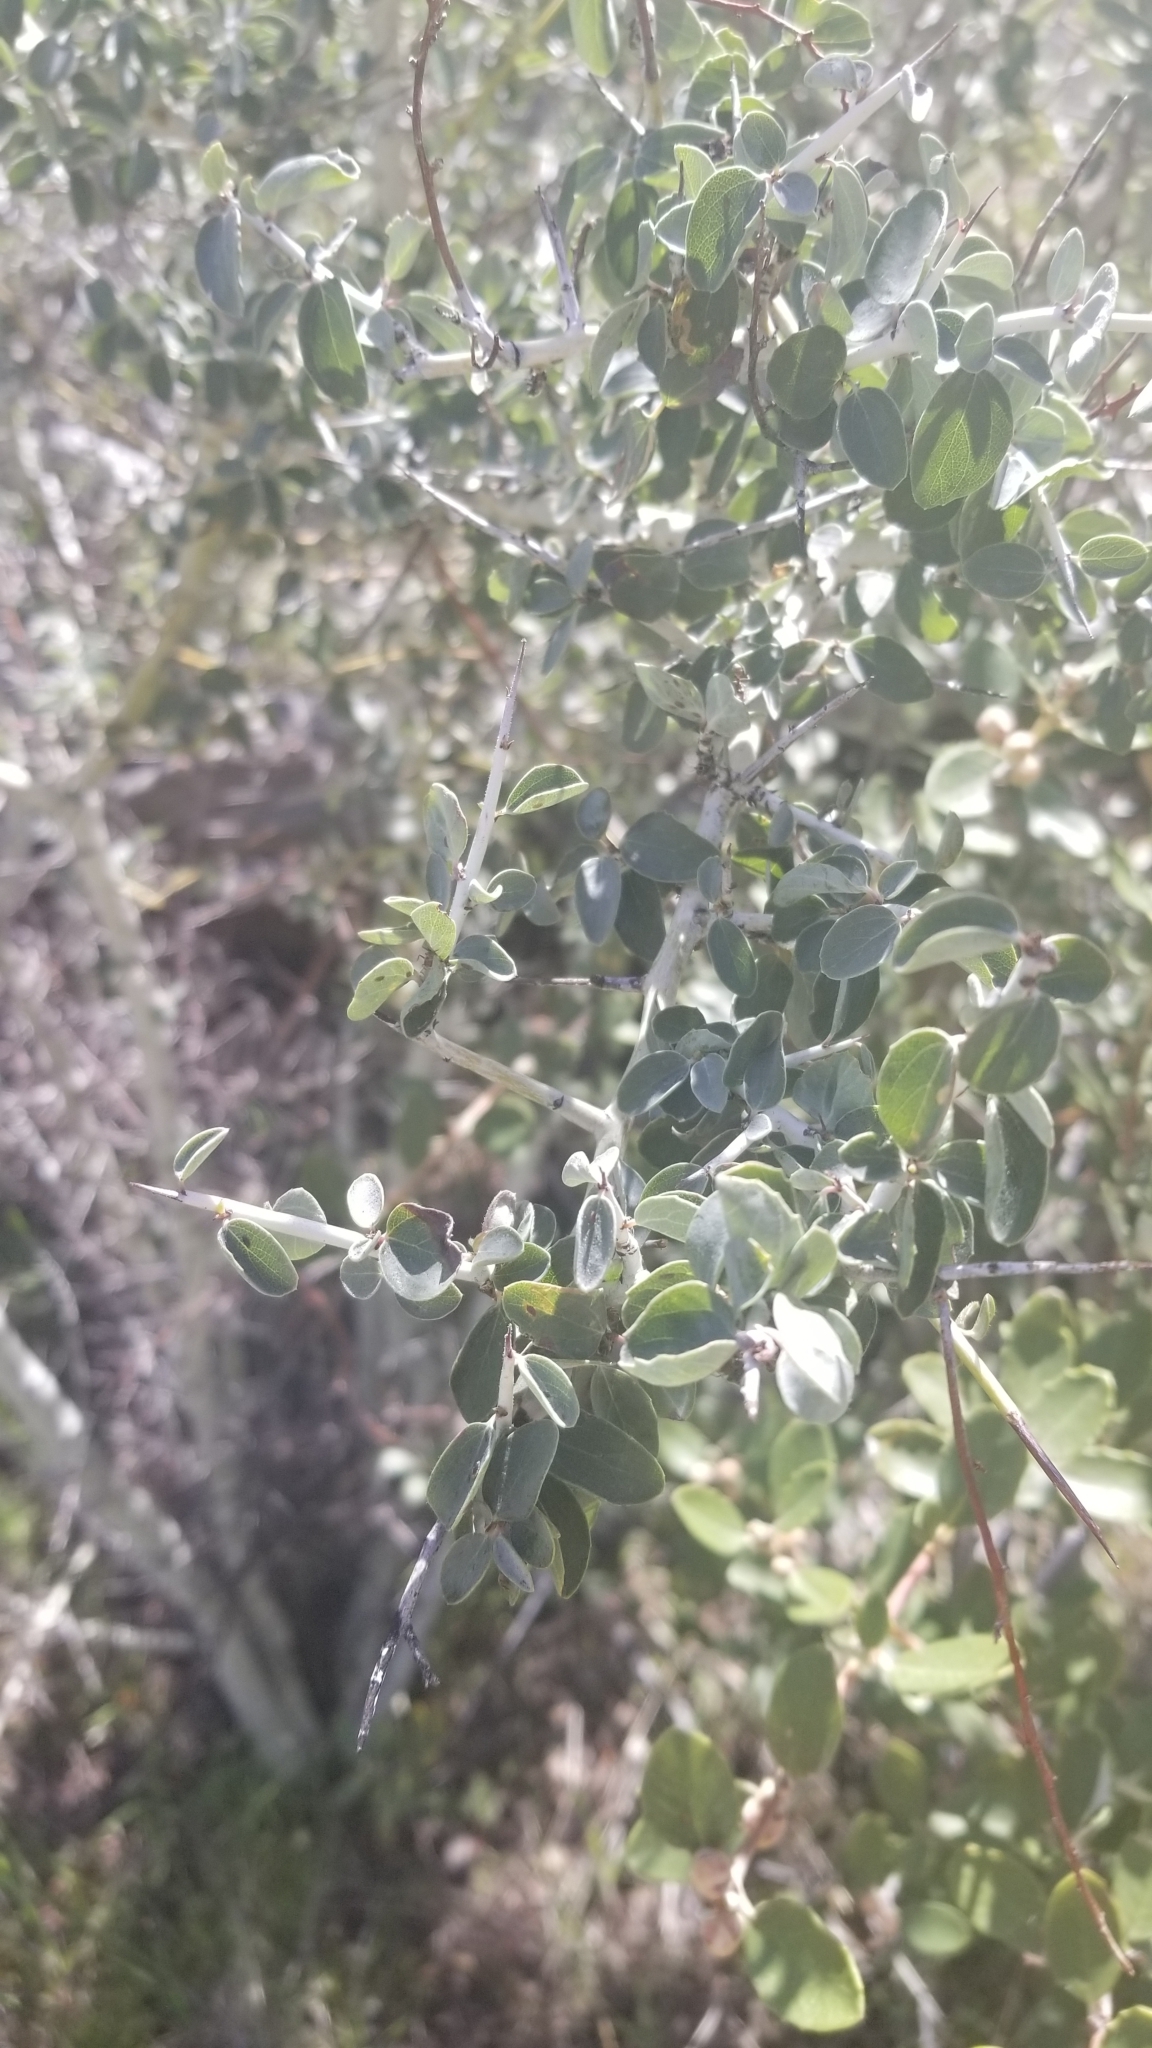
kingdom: Plantae
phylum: Tracheophyta
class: Magnoliopsida
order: Rosales
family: Rhamnaceae
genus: Ceanothus
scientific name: Ceanothus leucodermis
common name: Chaparral whitethorn
